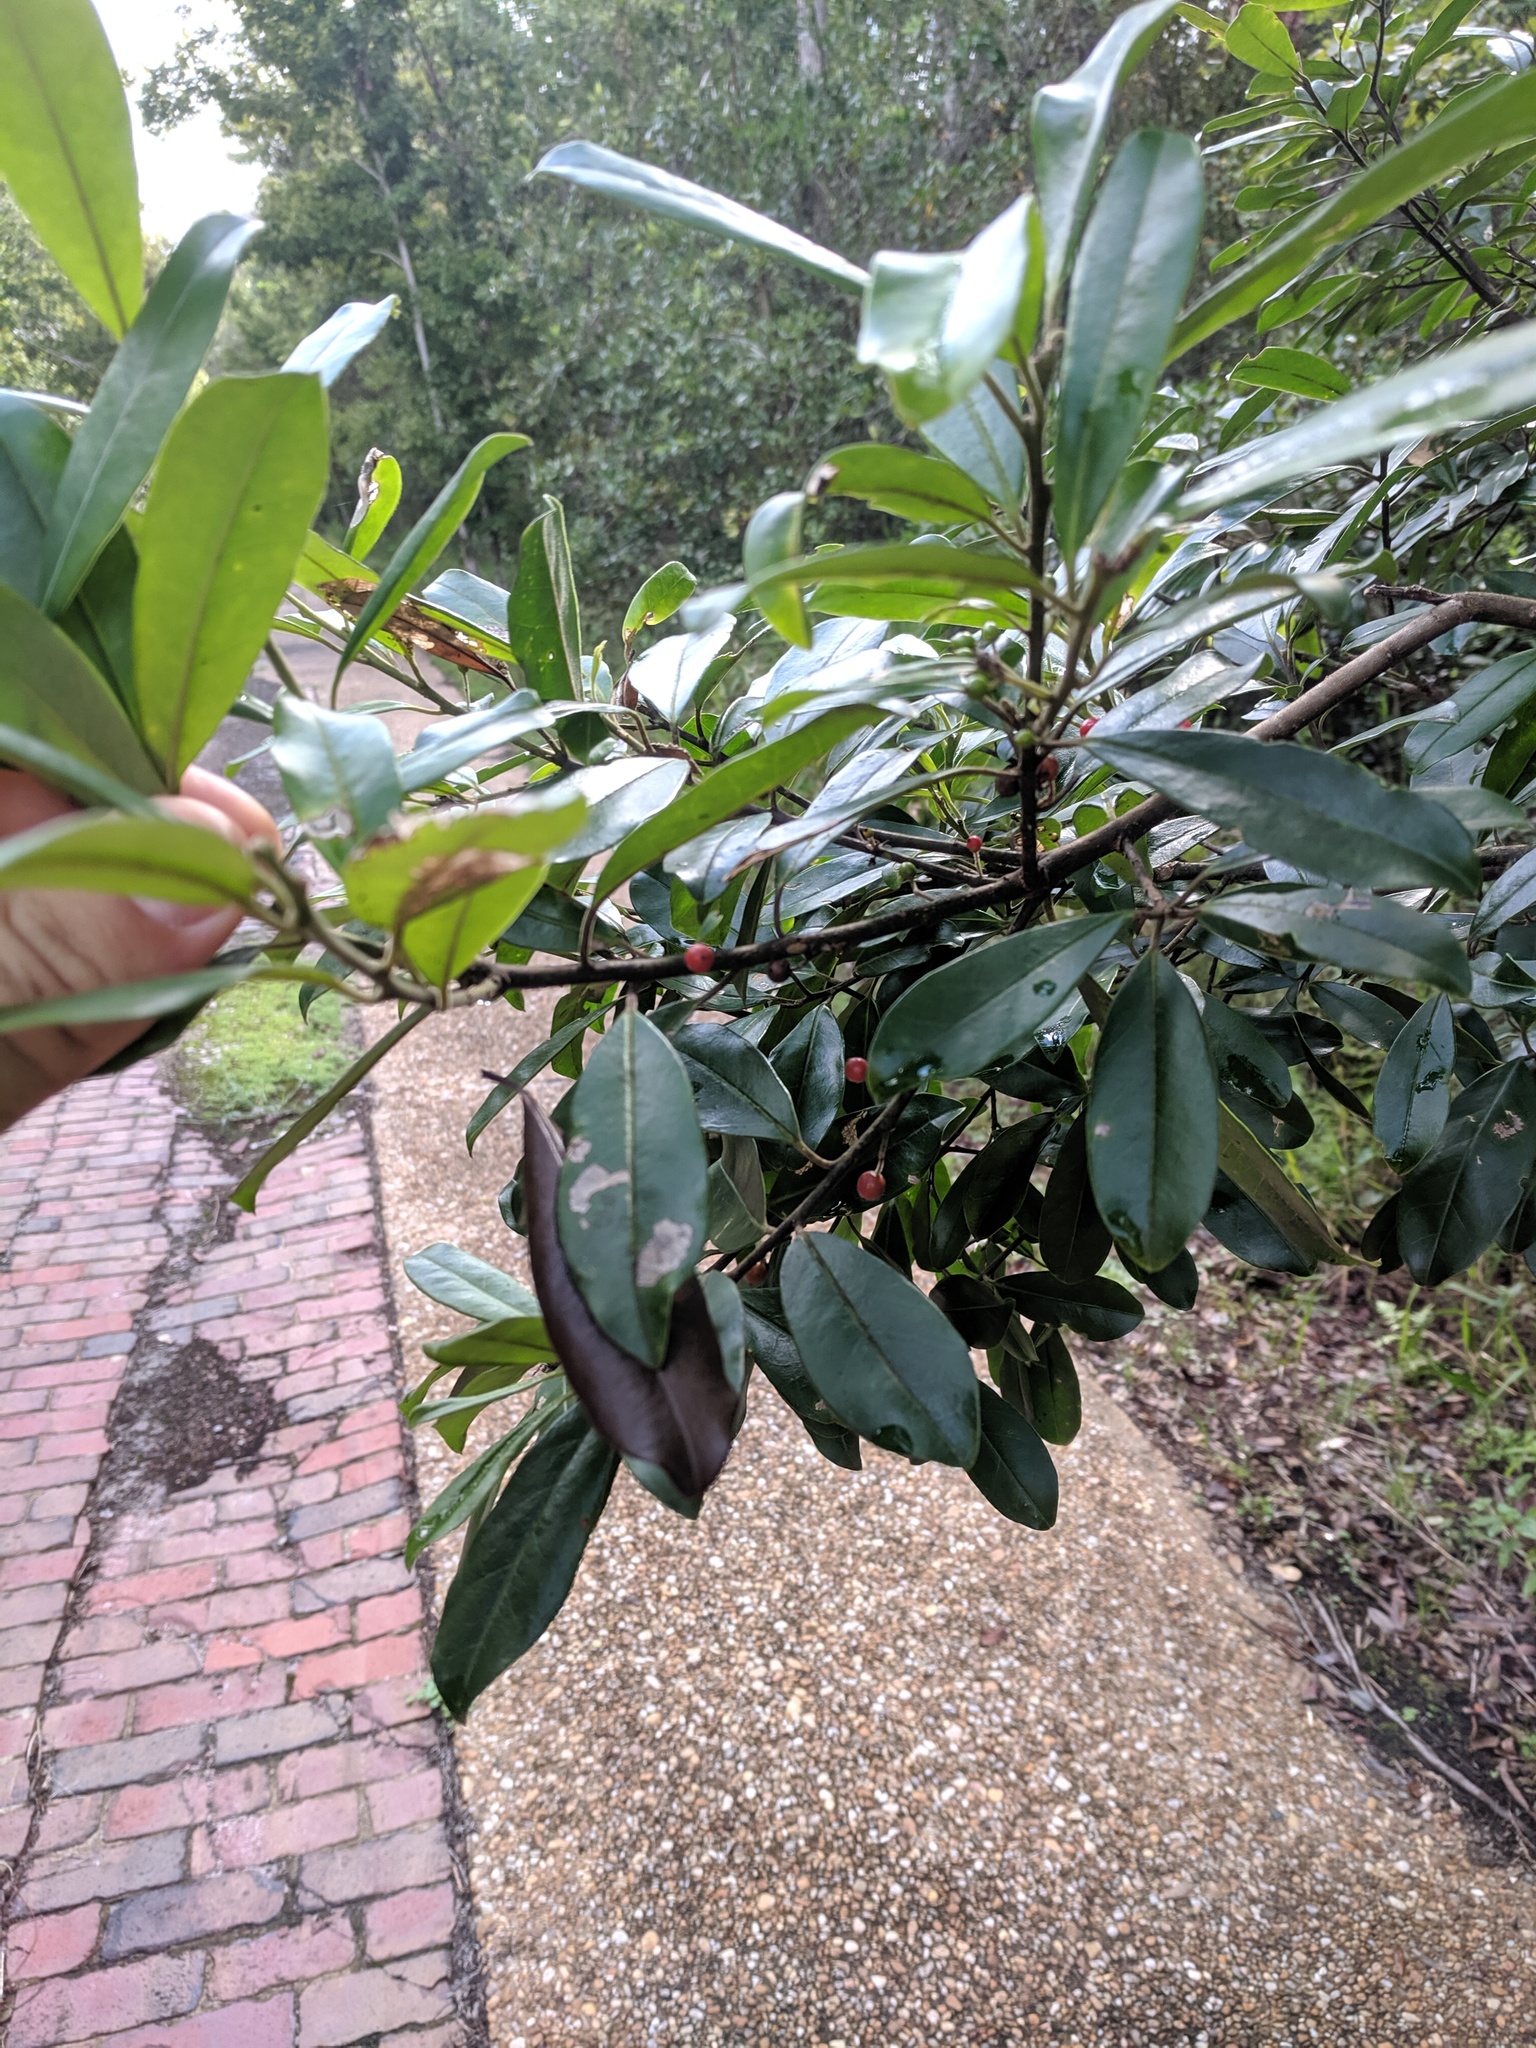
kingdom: Plantae
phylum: Tracheophyta
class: Magnoliopsida
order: Aquifoliales
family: Aquifoliaceae
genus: Ilex
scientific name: Ilex cassine
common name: Dahoon
